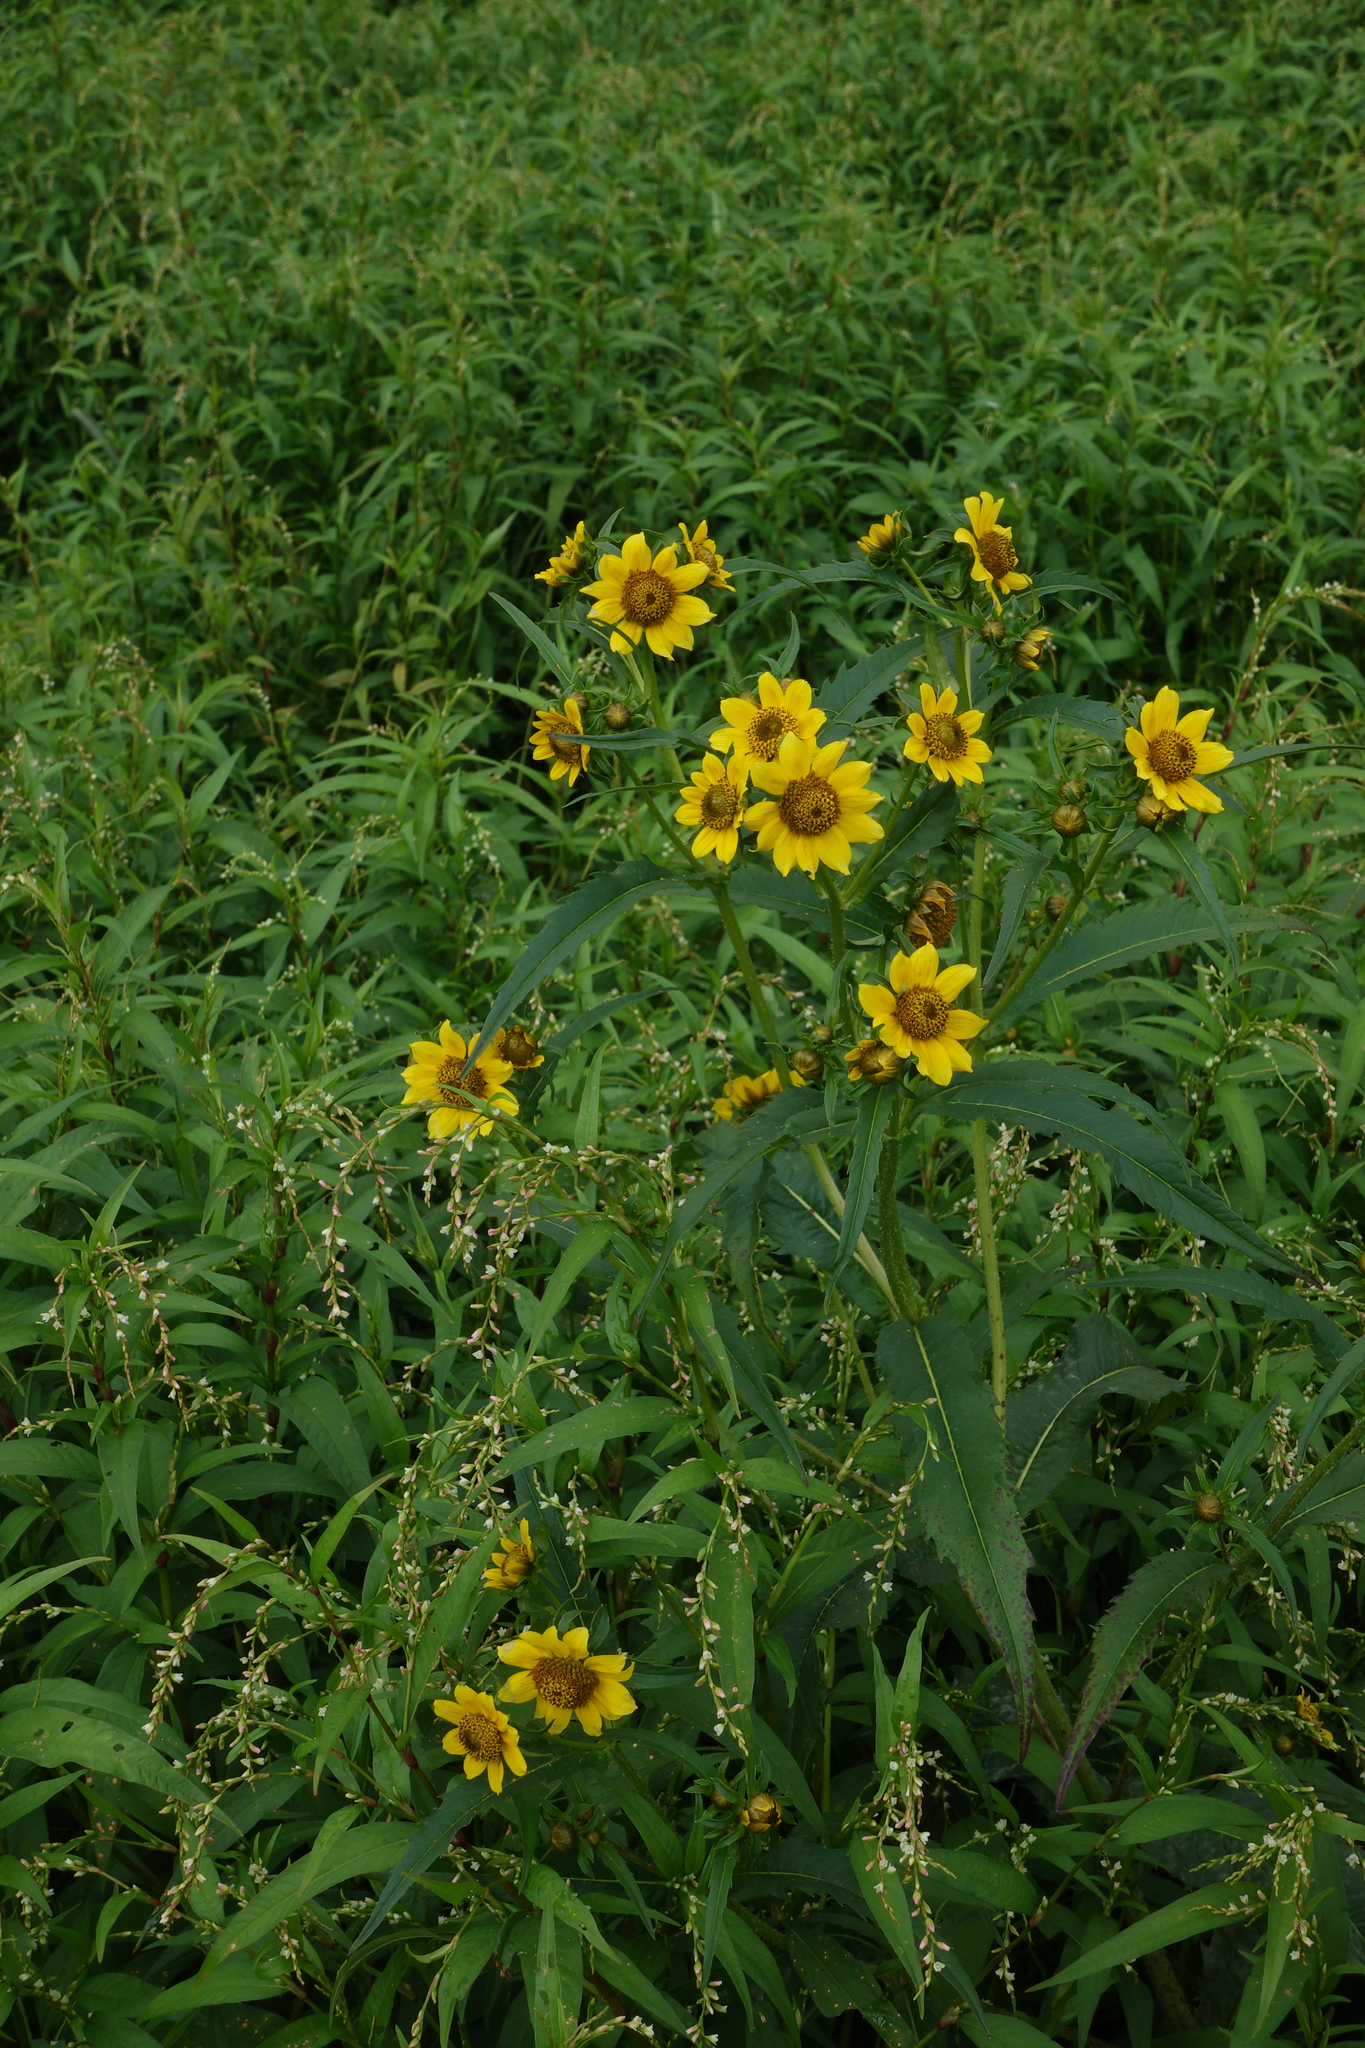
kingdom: Plantae
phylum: Tracheophyta
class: Magnoliopsida
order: Asterales
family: Asteraceae
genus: Bidens
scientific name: Bidens cernua
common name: Nodding bur-marigold
